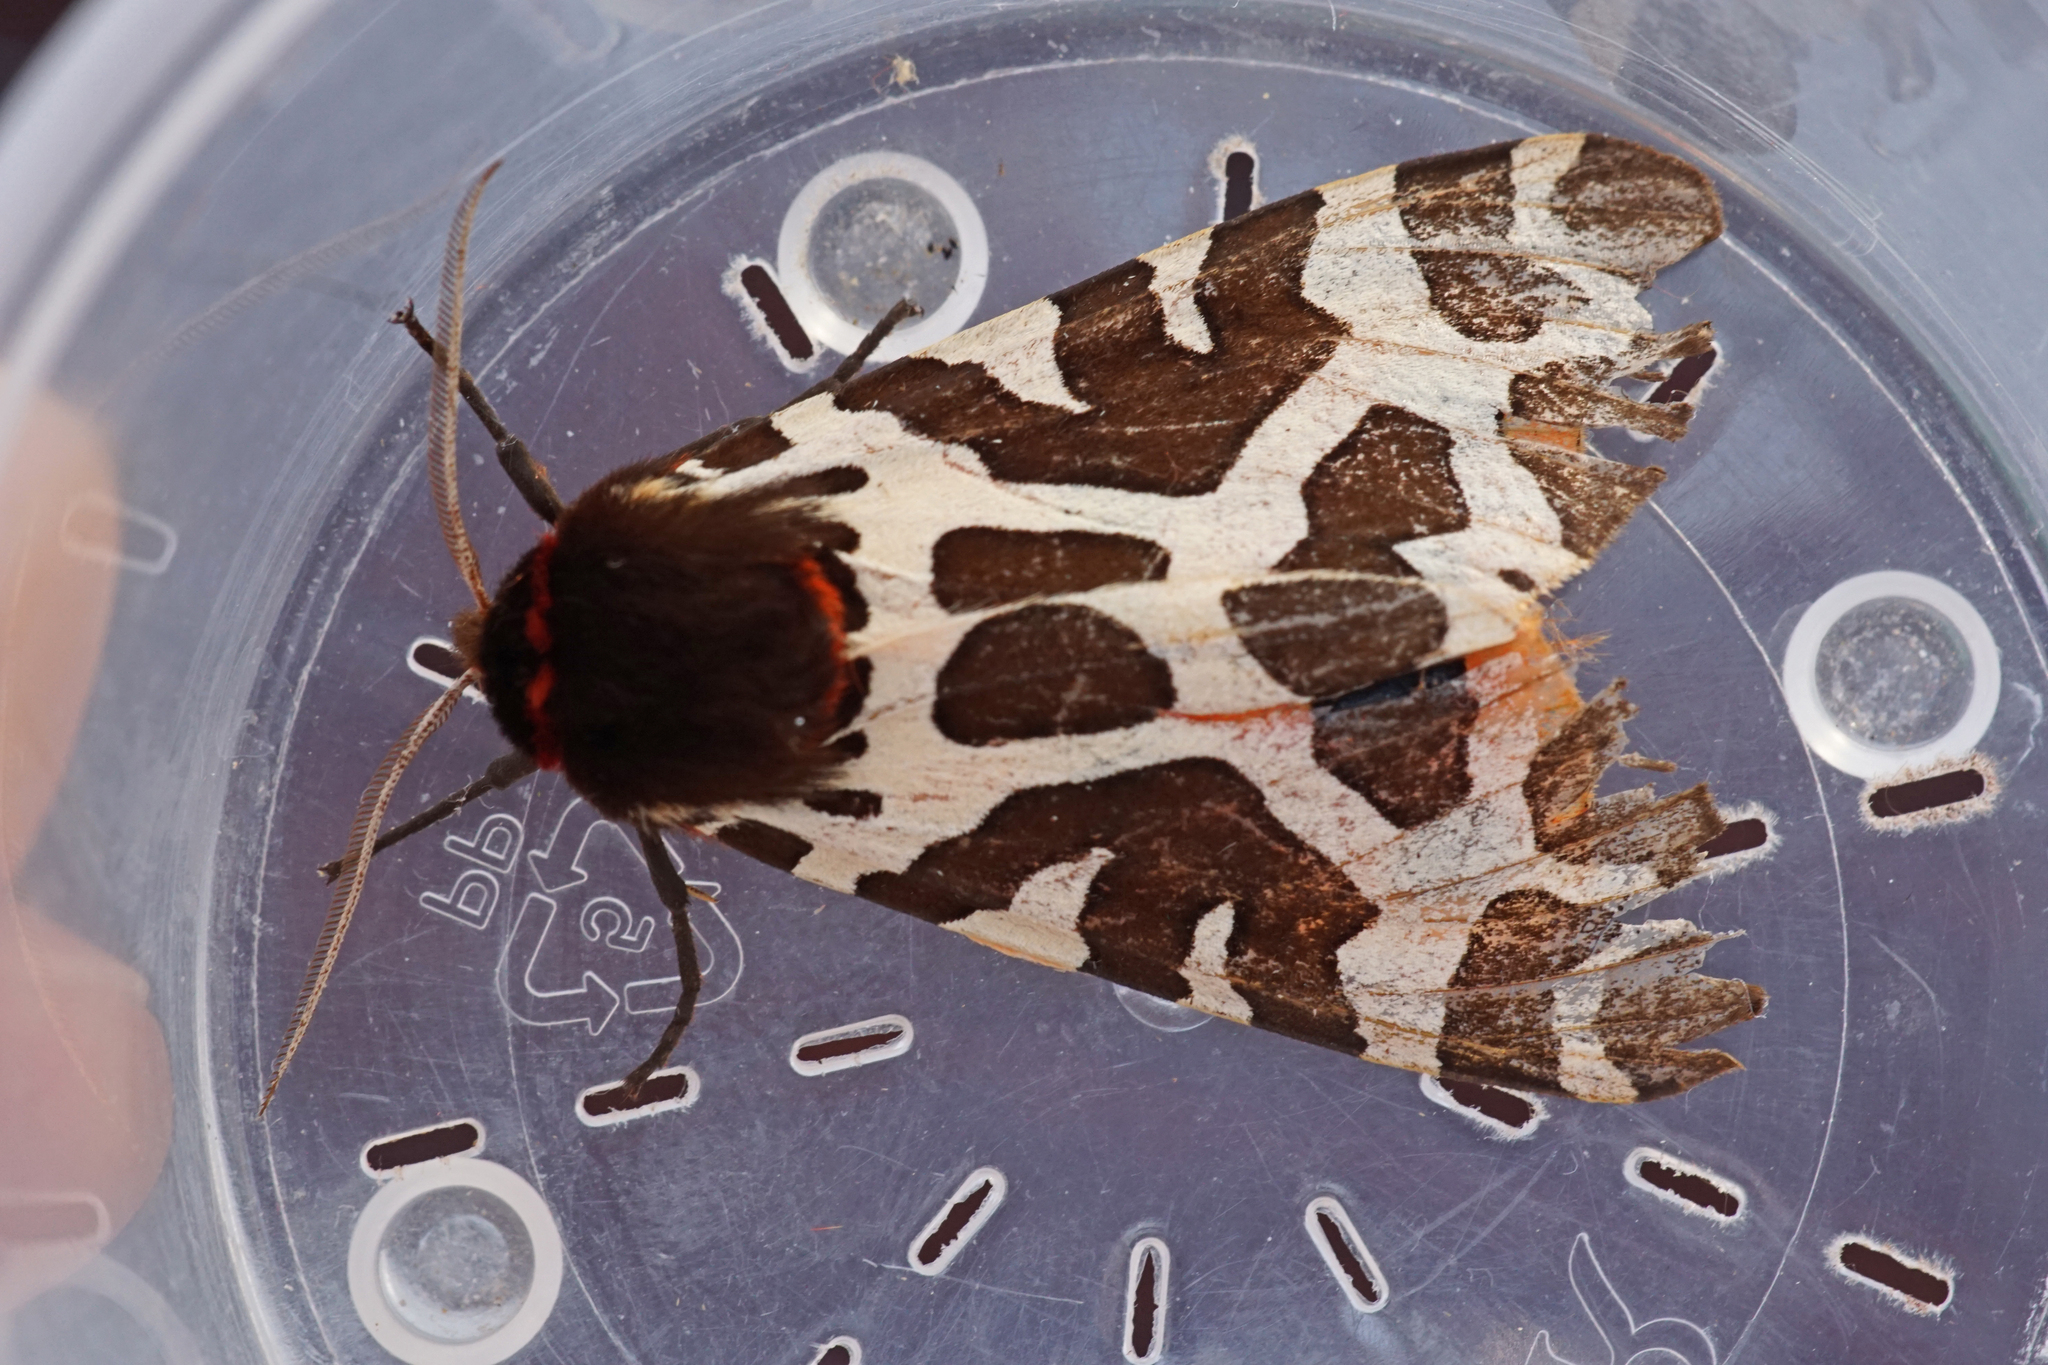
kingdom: Animalia
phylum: Arthropoda
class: Insecta
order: Lepidoptera
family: Erebidae
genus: Arctia
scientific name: Arctia caja
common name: Garden tiger
